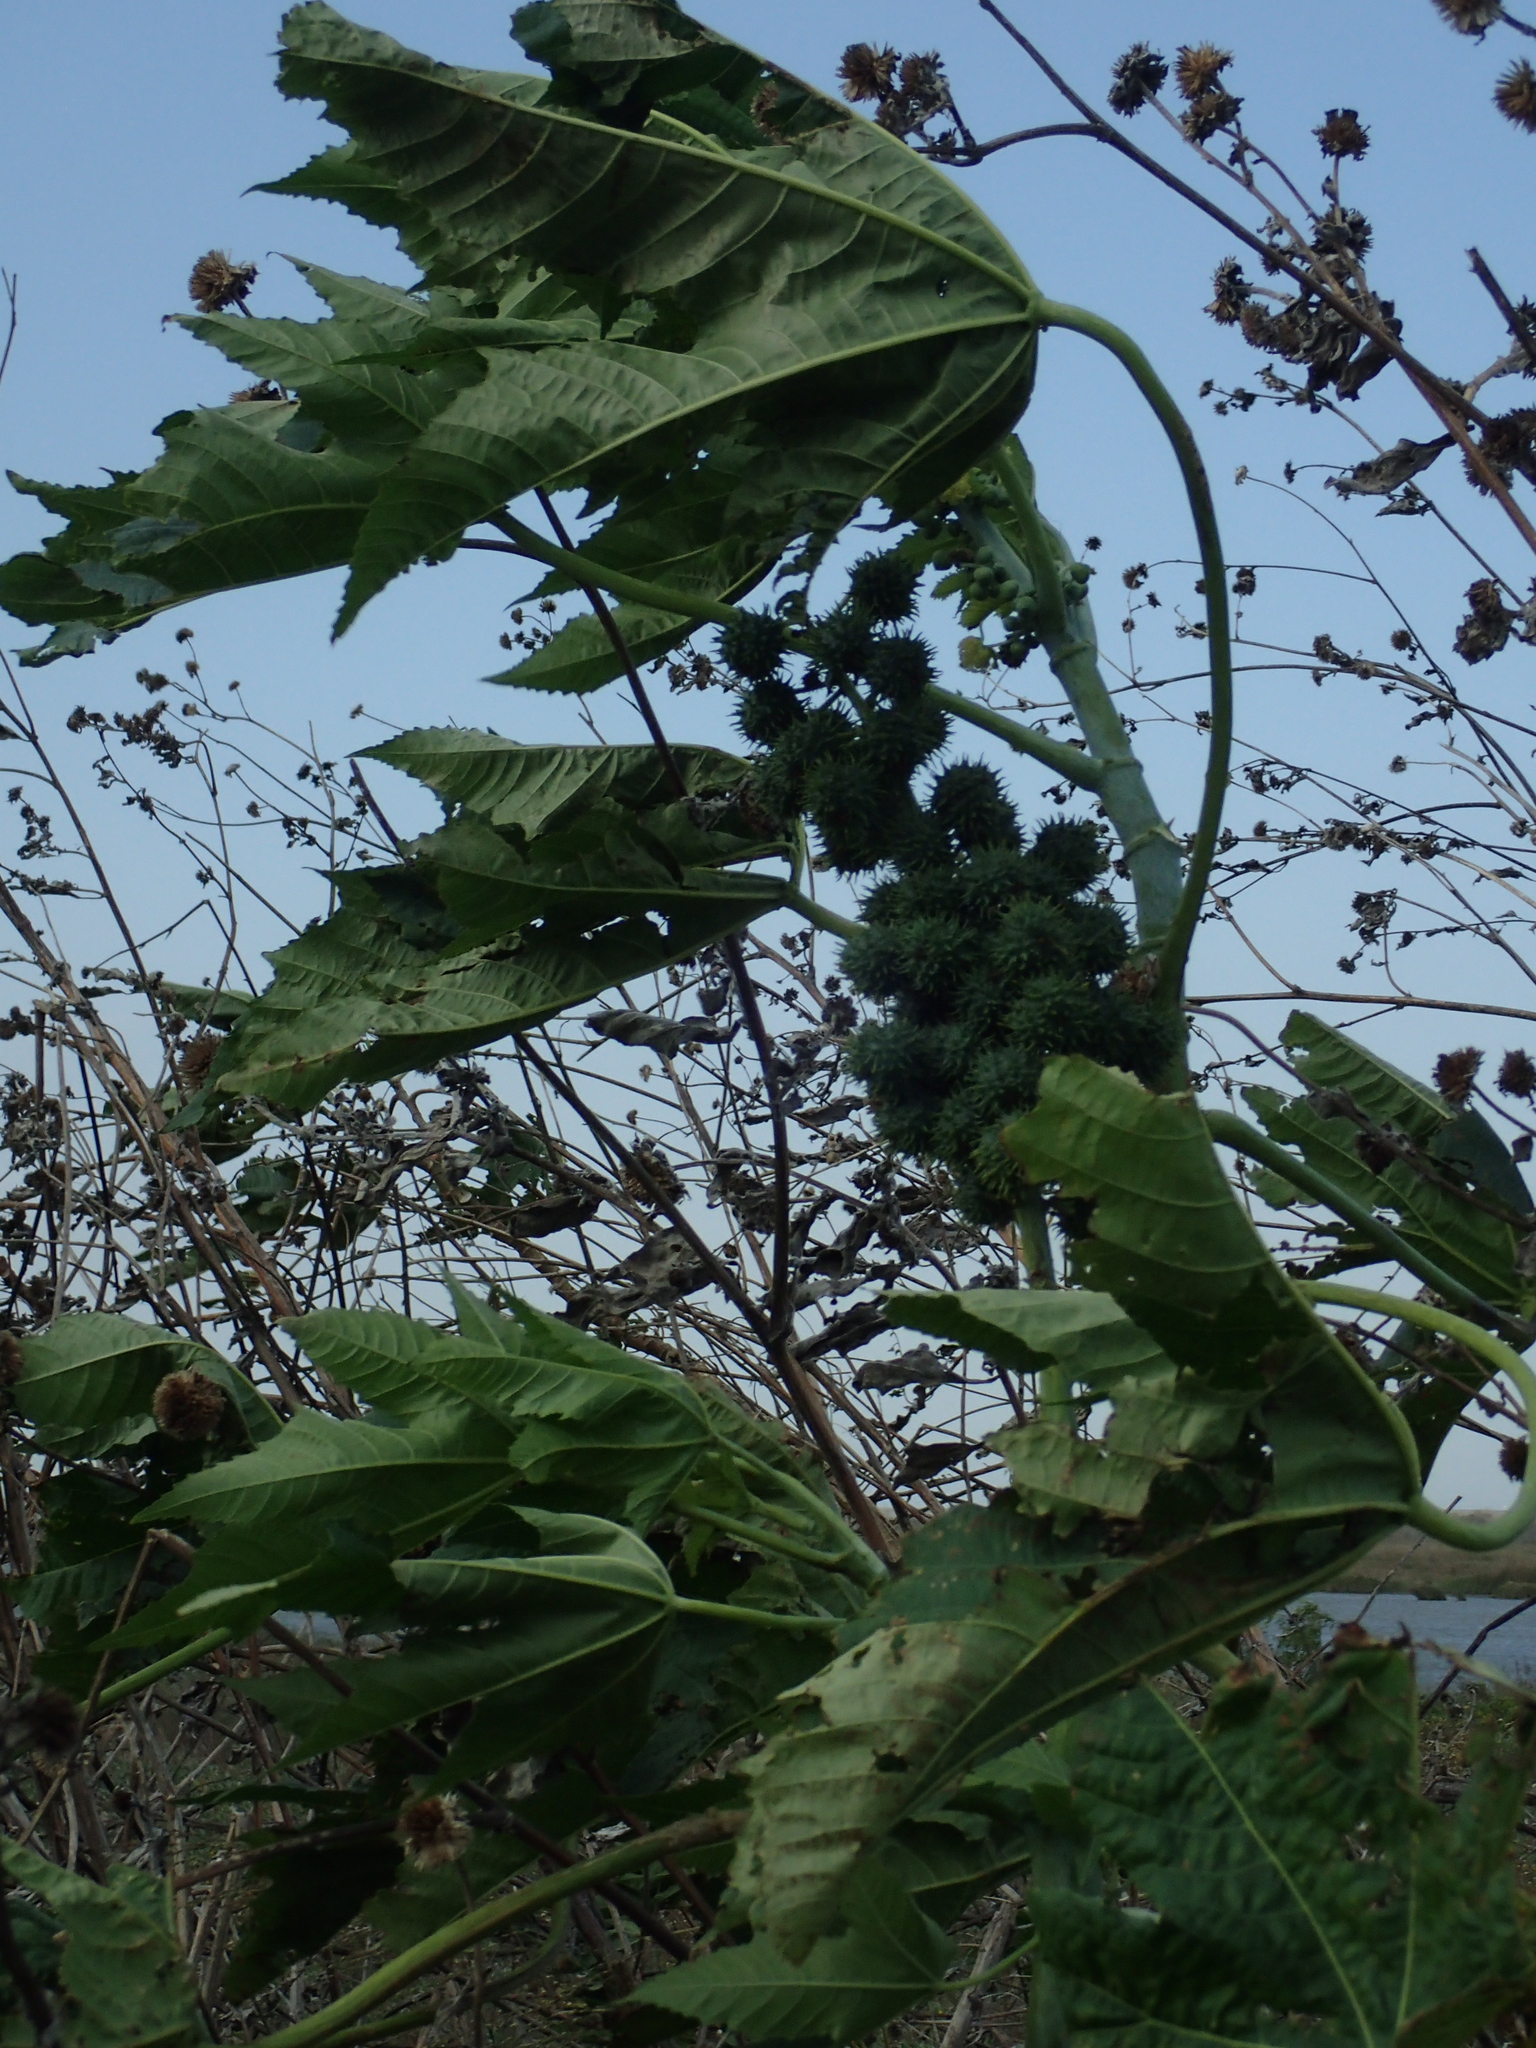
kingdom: Plantae
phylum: Tracheophyta
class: Magnoliopsida
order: Malpighiales
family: Euphorbiaceae
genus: Ricinus
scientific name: Ricinus communis
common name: Castor-oil-plant
